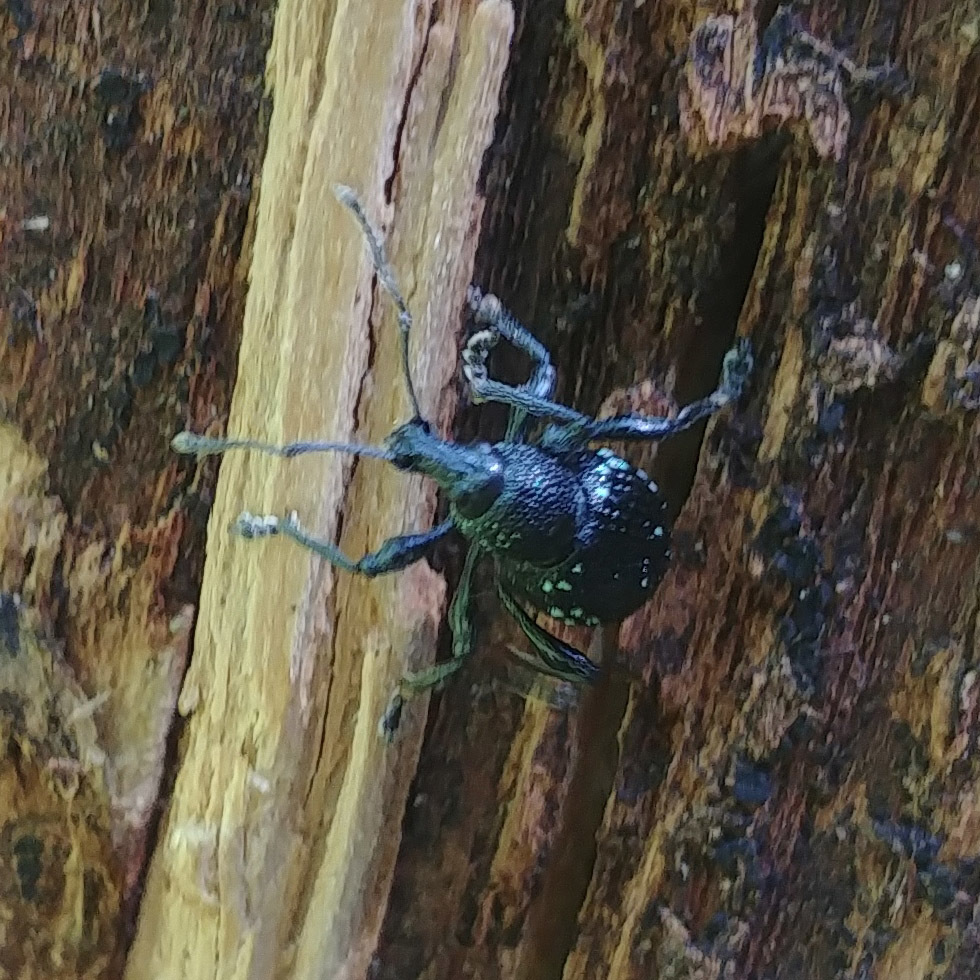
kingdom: Animalia
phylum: Arthropoda
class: Insecta
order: Coleoptera
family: Curculionidae
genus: Otiorhynchus
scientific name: Otiorhynchus gemmatus
